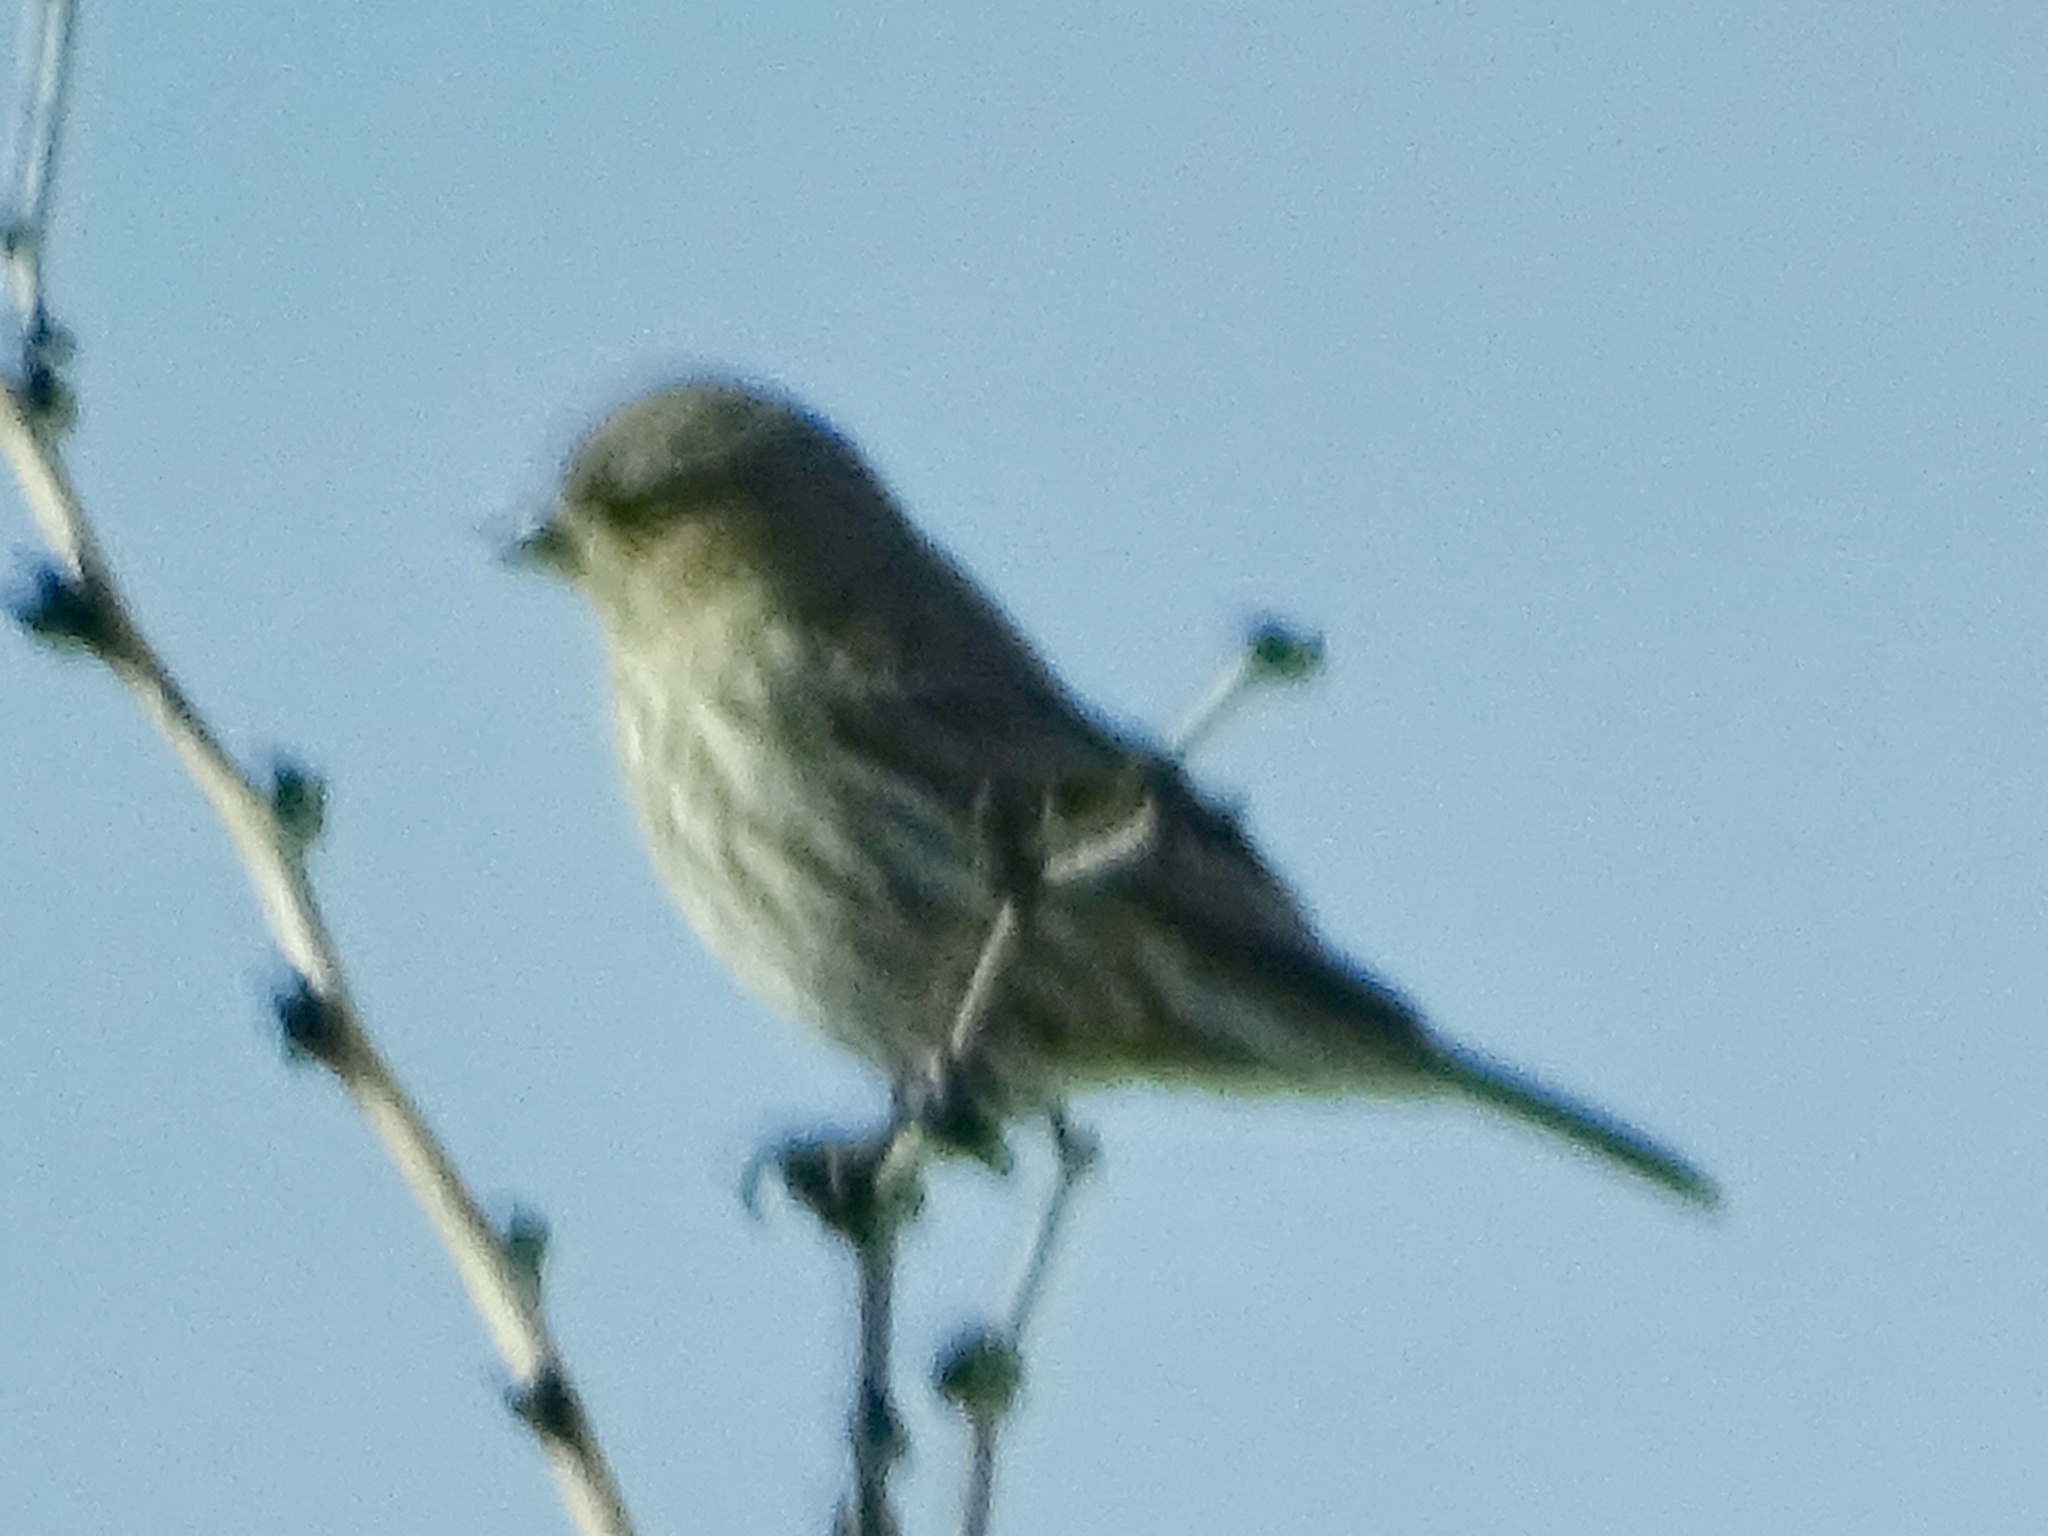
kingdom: Animalia
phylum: Chordata
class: Aves
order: Passeriformes
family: Fringillidae
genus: Haemorhous
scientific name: Haemorhous mexicanus
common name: House finch
